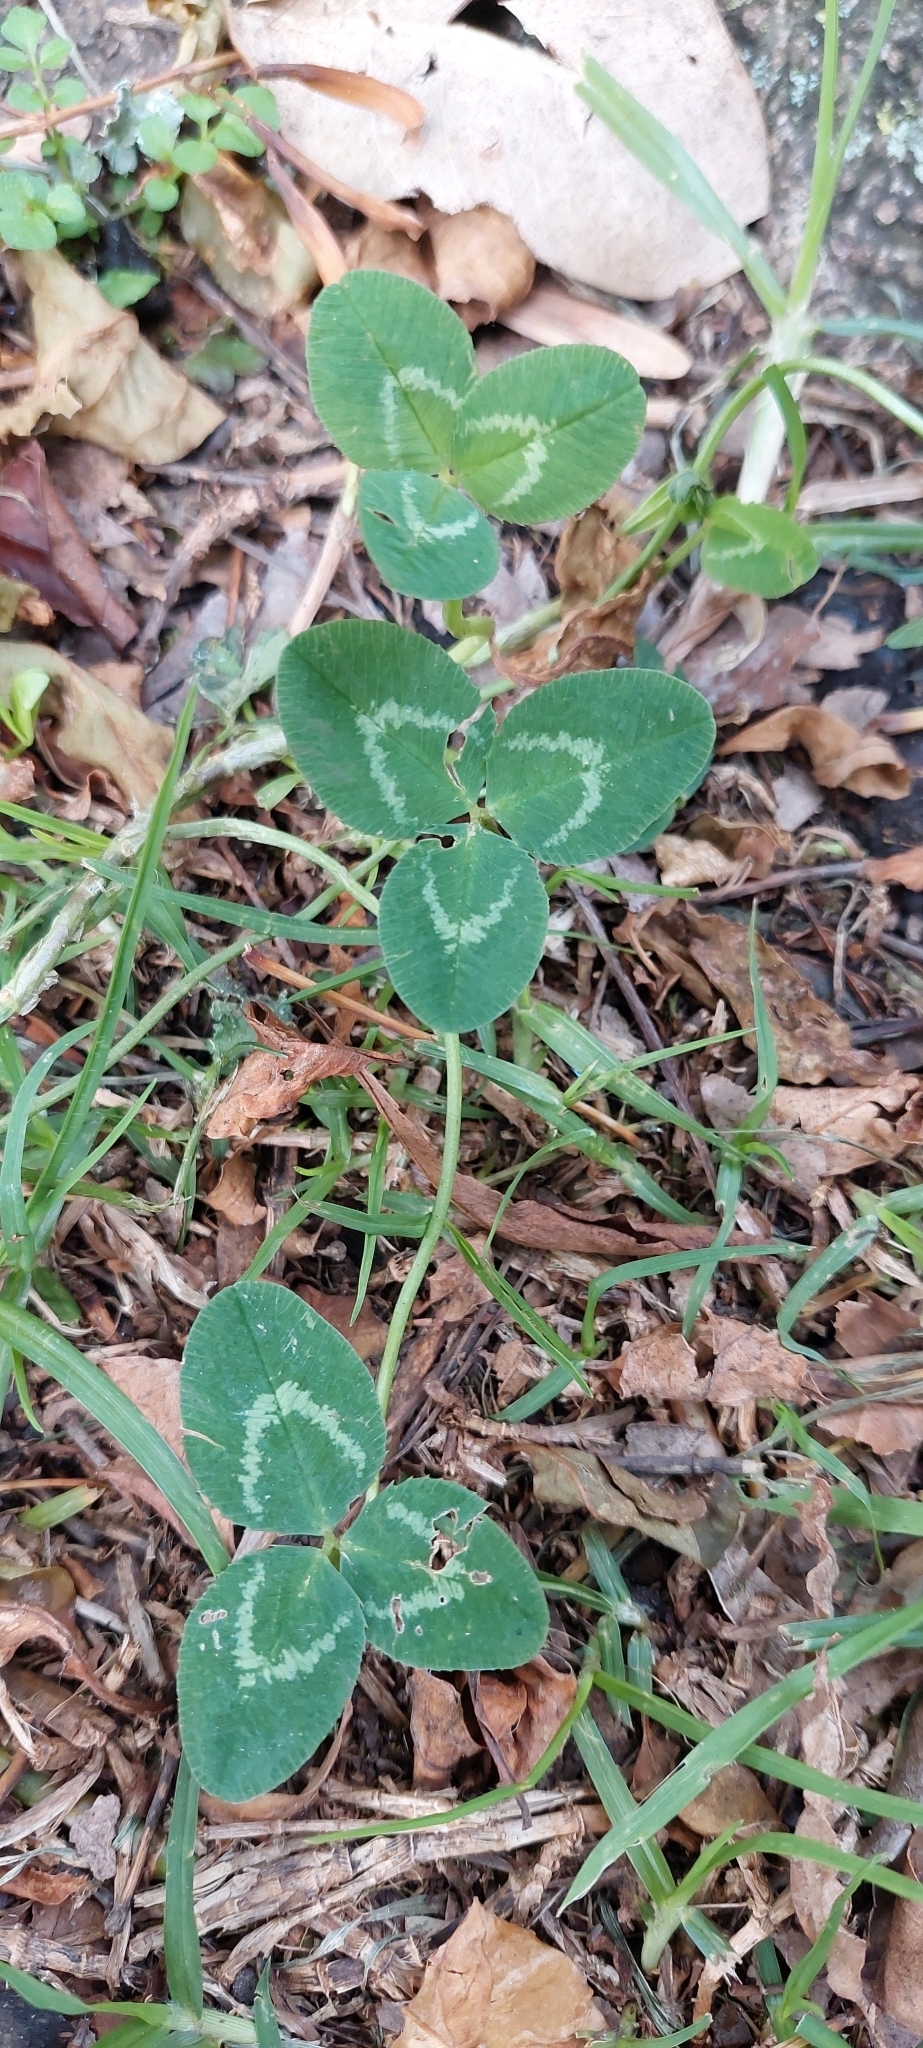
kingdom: Plantae
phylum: Tracheophyta
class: Magnoliopsida
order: Fabales
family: Fabaceae
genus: Trifolium
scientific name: Trifolium repens
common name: White clover
